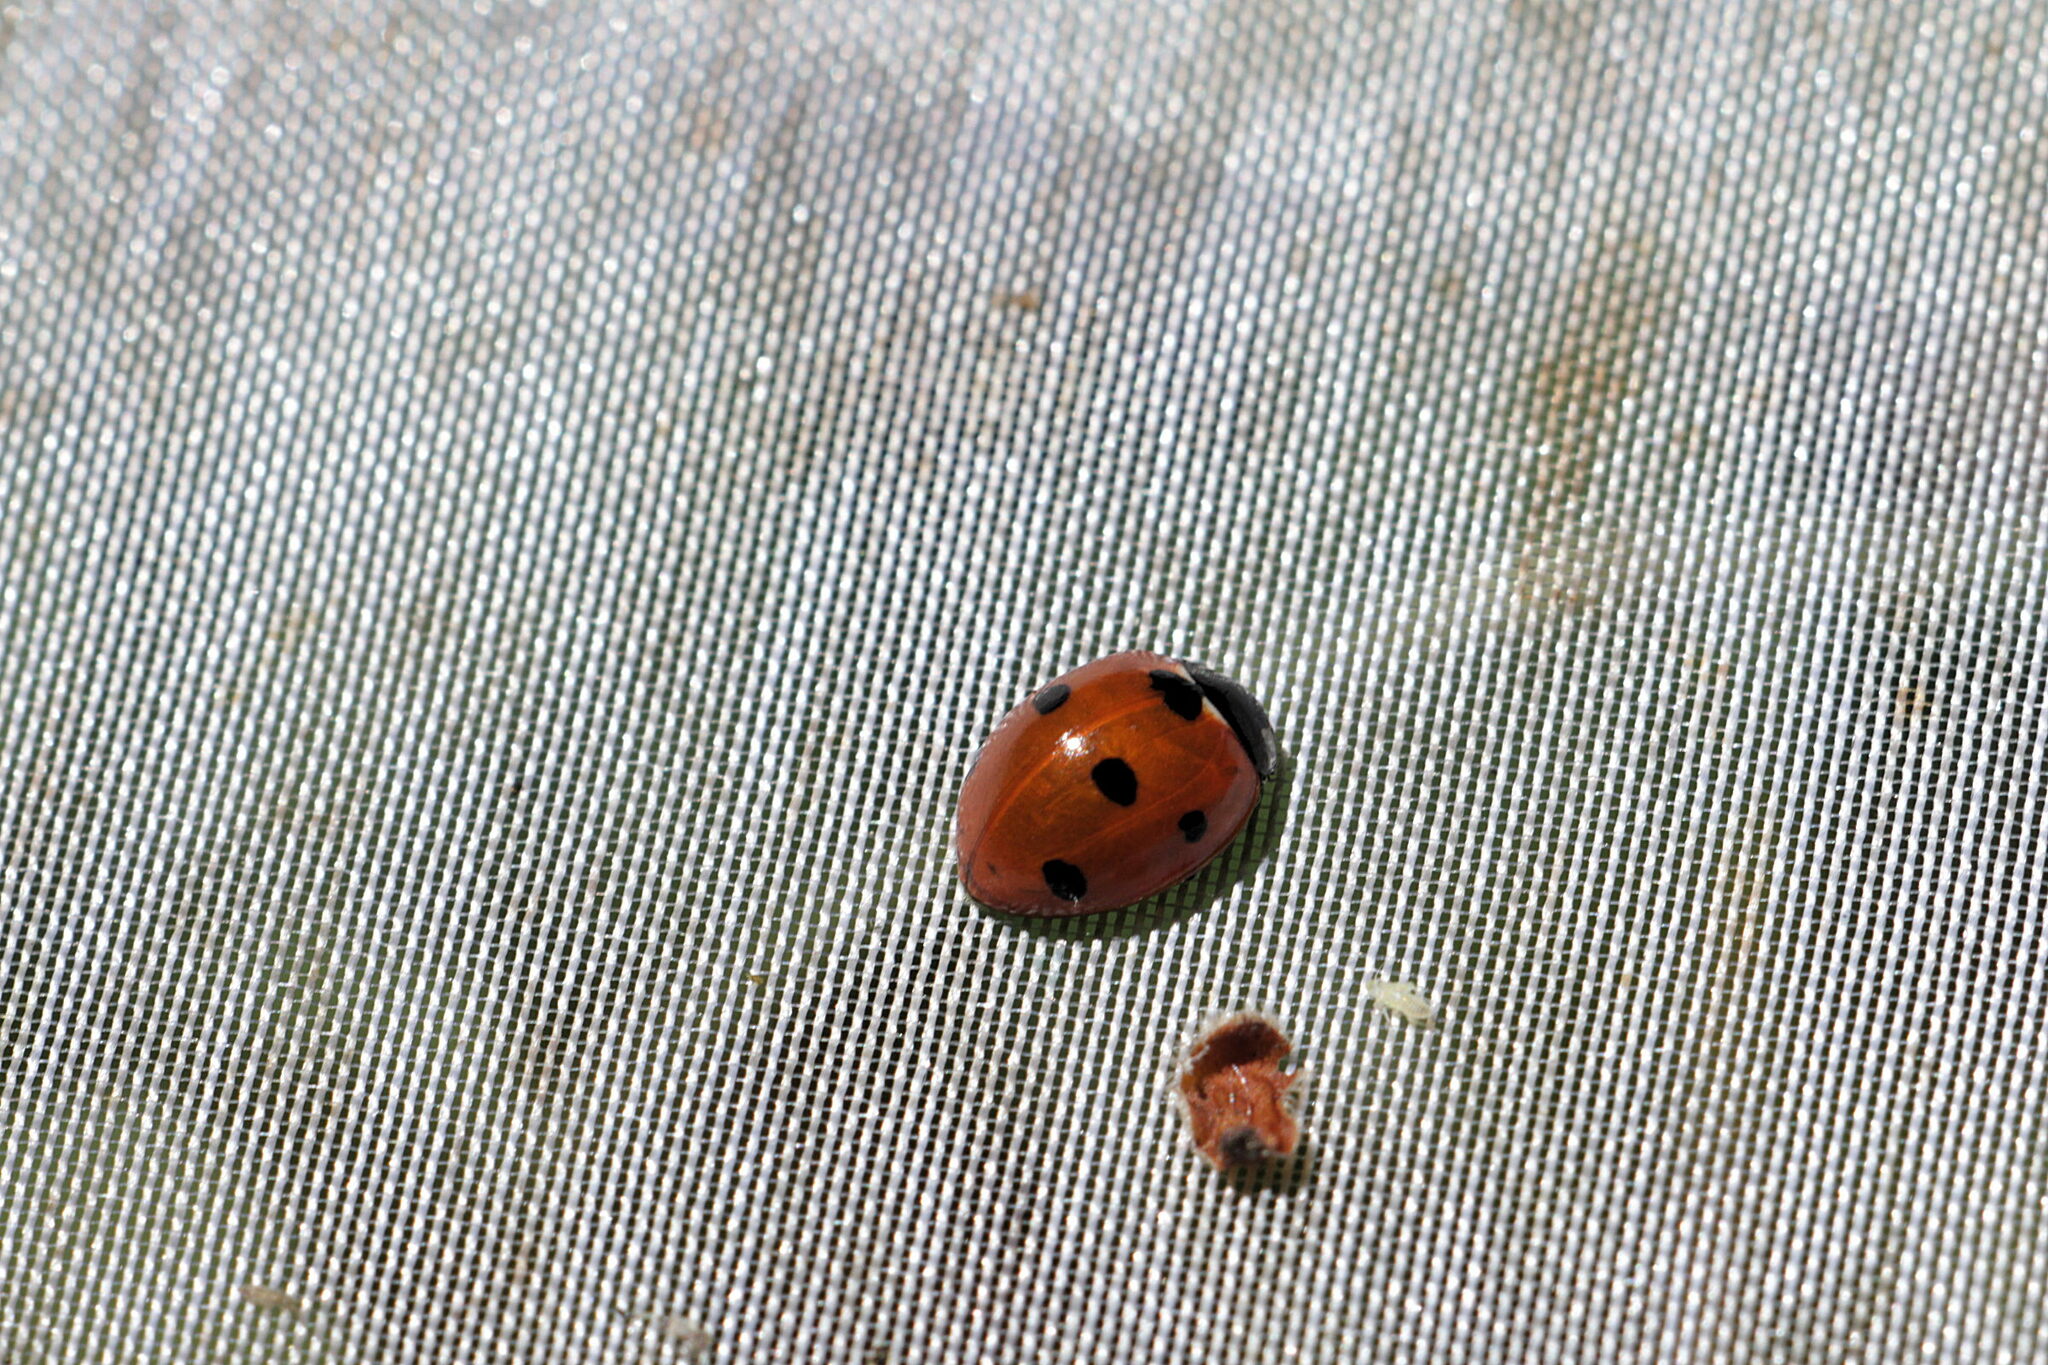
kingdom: Animalia
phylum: Arthropoda
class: Insecta
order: Coleoptera
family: Coccinellidae
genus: Coccinella
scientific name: Coccinella septempunctata
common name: Sevenspotted lady beetle
